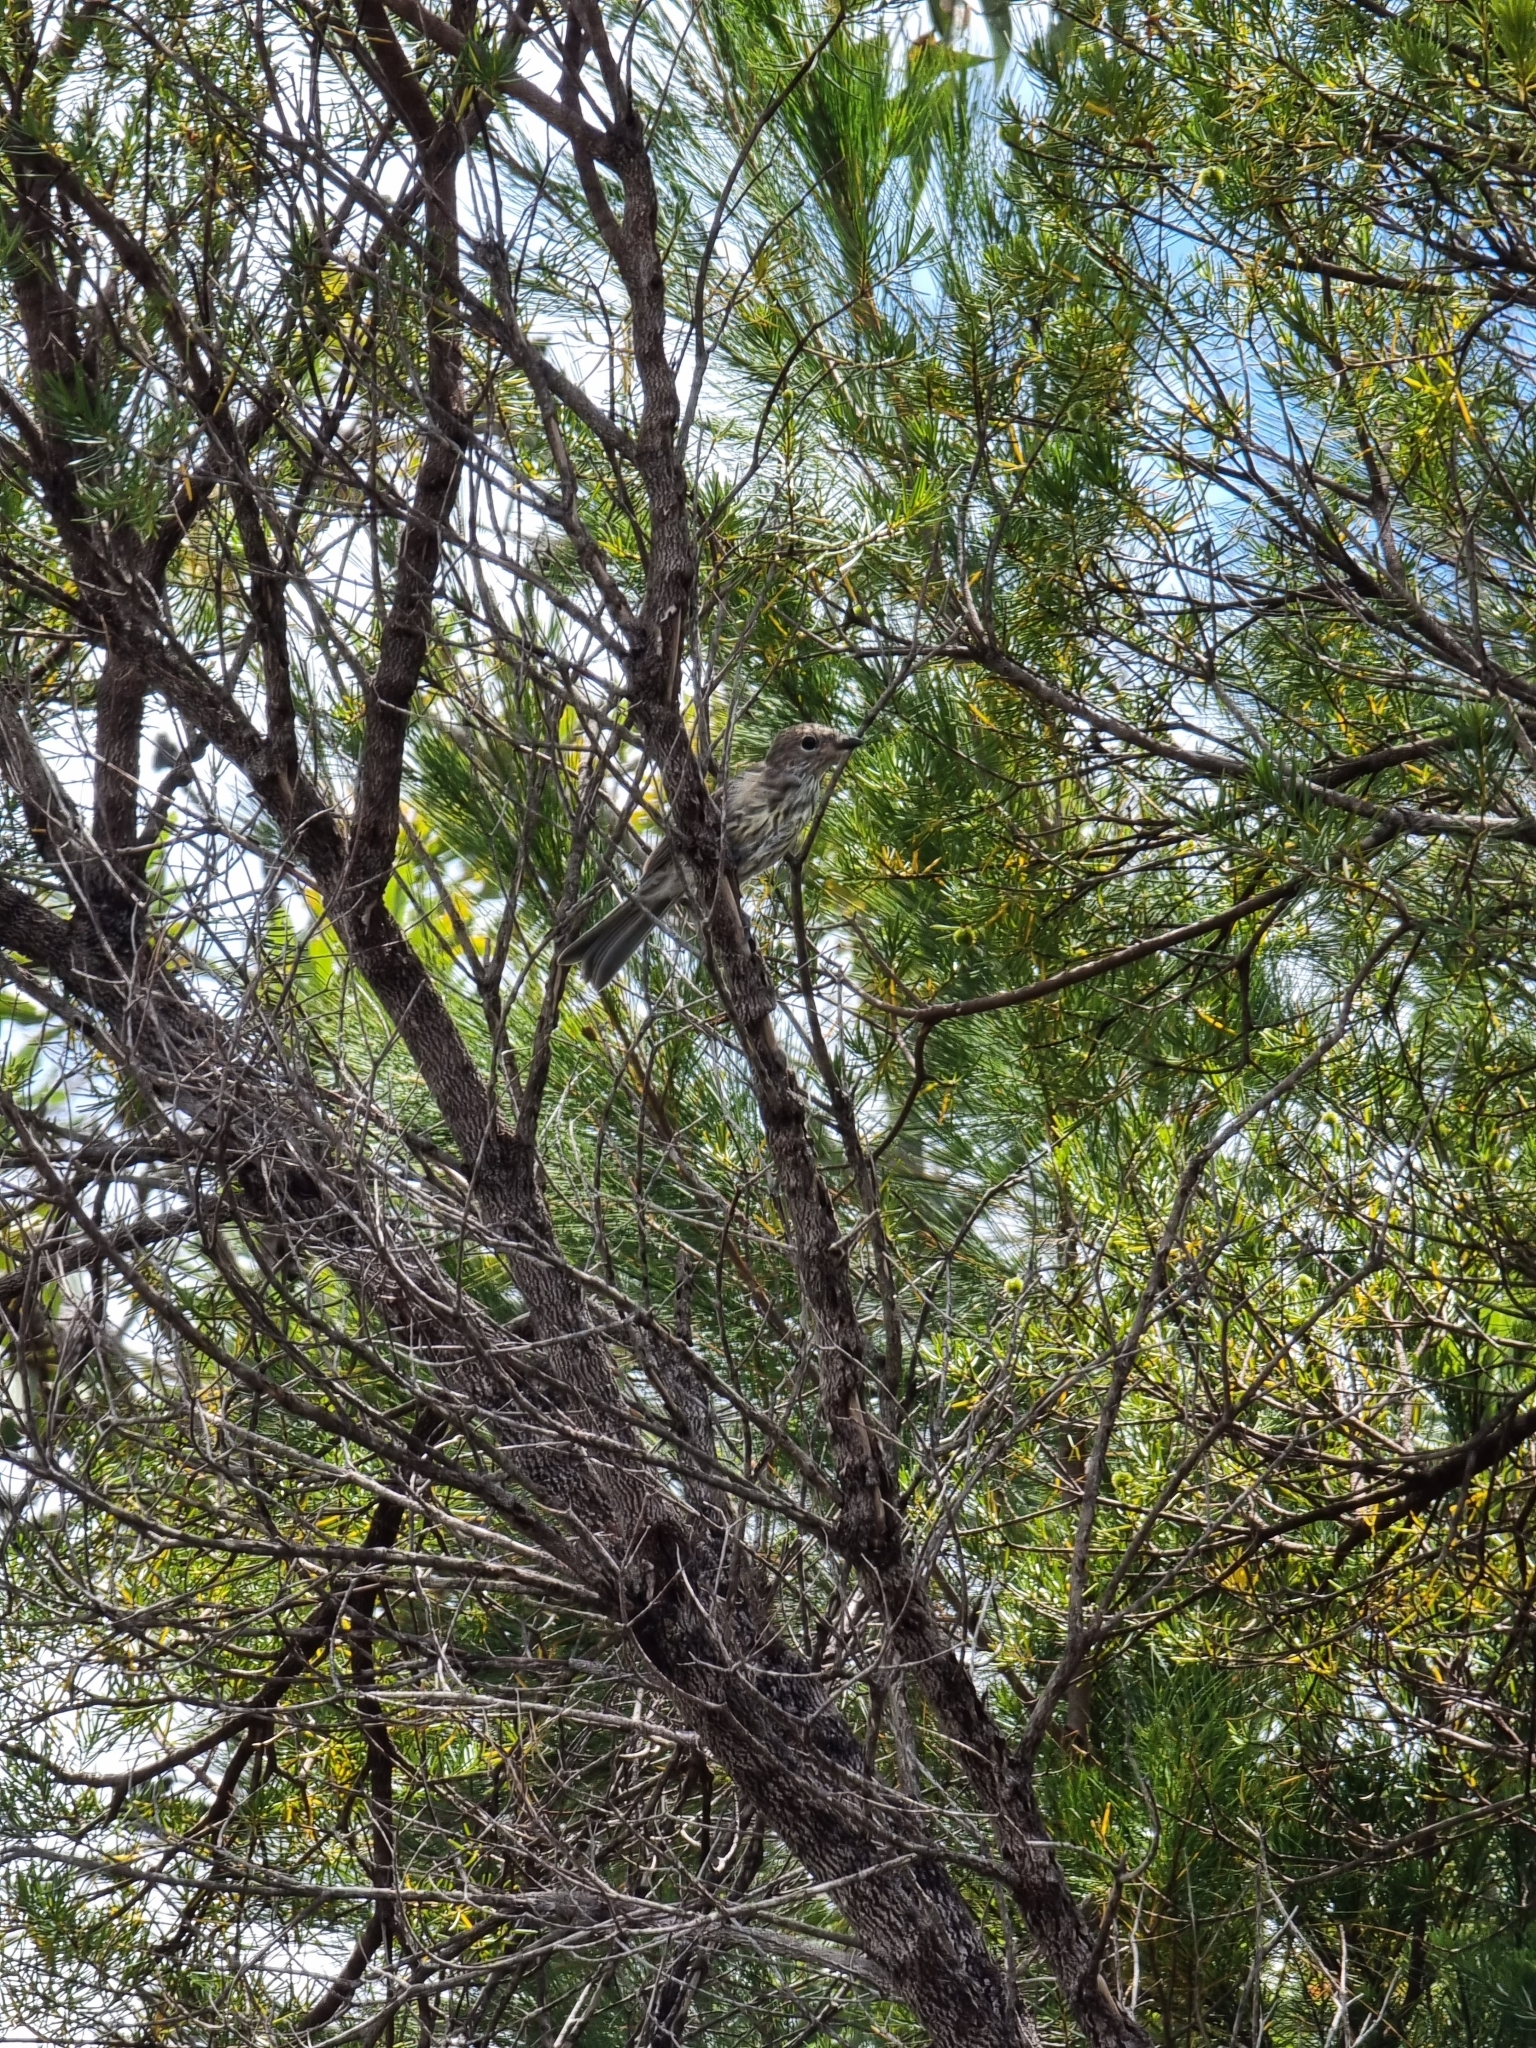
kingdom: Animalia
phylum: Chordata
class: Aves
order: Passeriformes
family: Oriolidae
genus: Sphecotheres
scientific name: Sphecotheres vieilloti
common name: Australasian figbird
